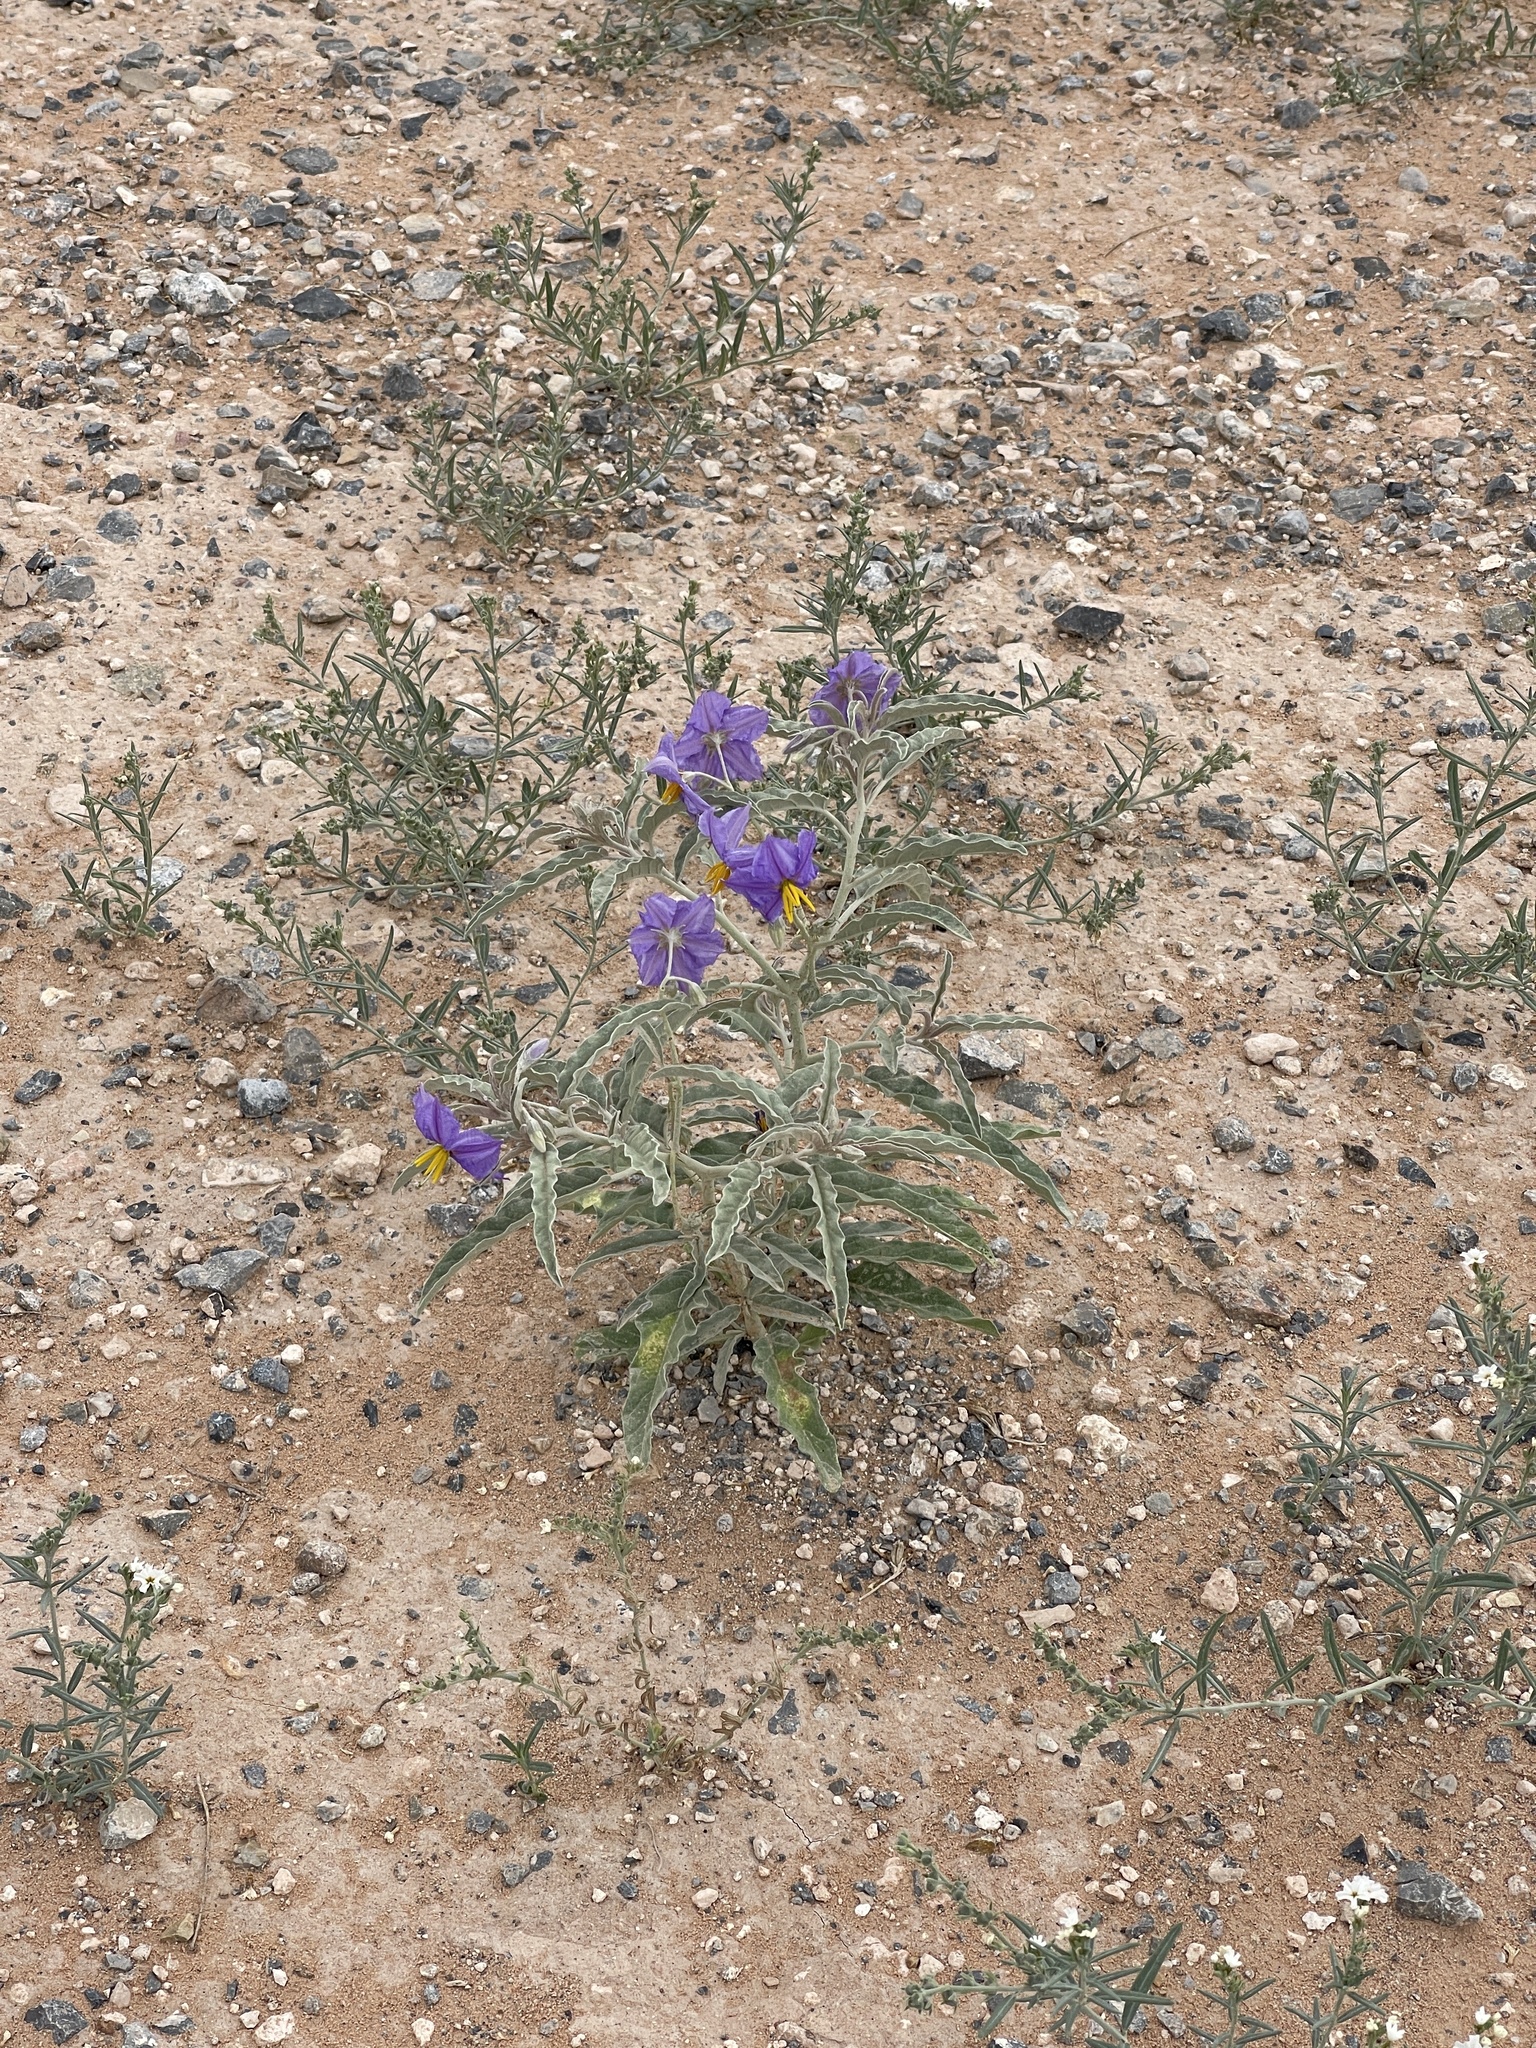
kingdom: Plantae
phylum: Tracheophyta
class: Magnoliopsida
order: Solanales
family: Solanaceae
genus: Solanum
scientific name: Solanum elaeagnifolium
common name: Silverleaf nightshade
